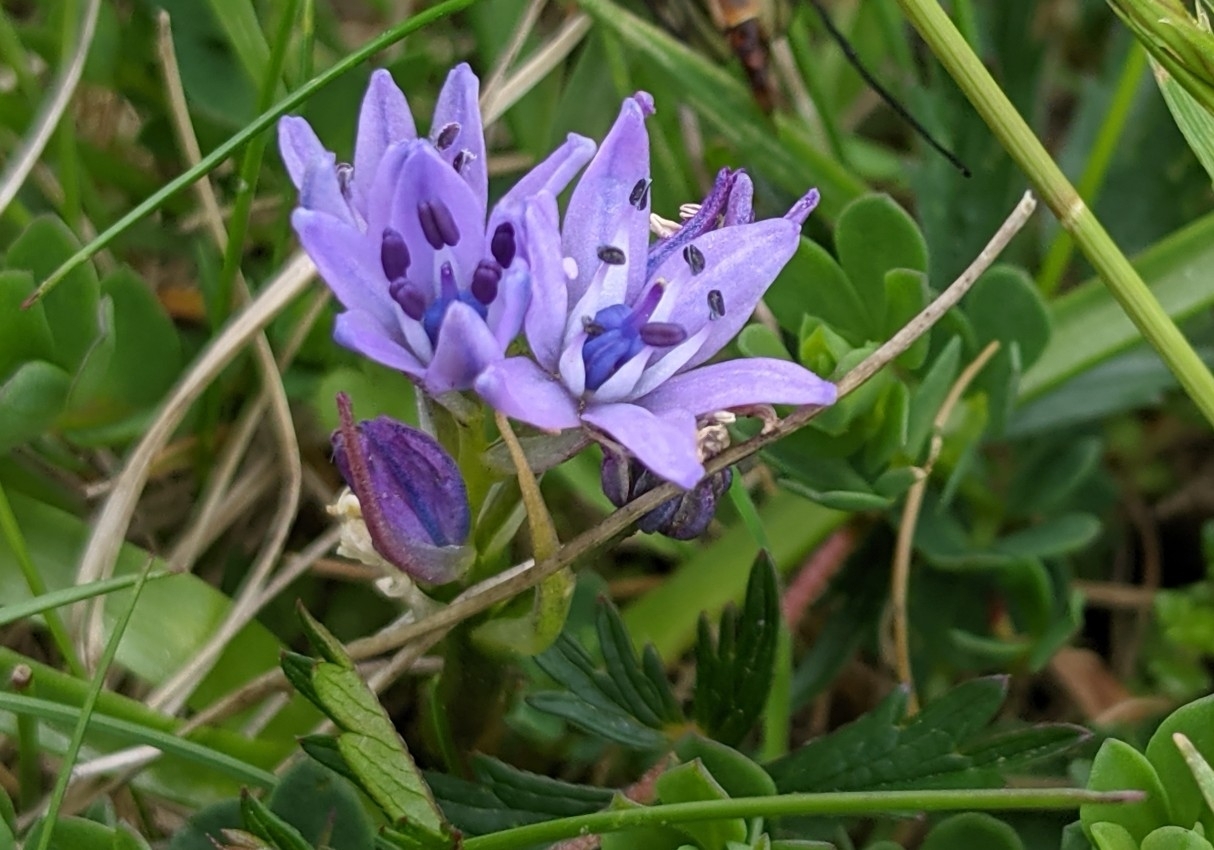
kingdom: Plantae
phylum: Tracheophyta
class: Liliopsida
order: Asparagales
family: Asparagaceae
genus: Scilla
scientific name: Scilla verna
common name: Spring squill
